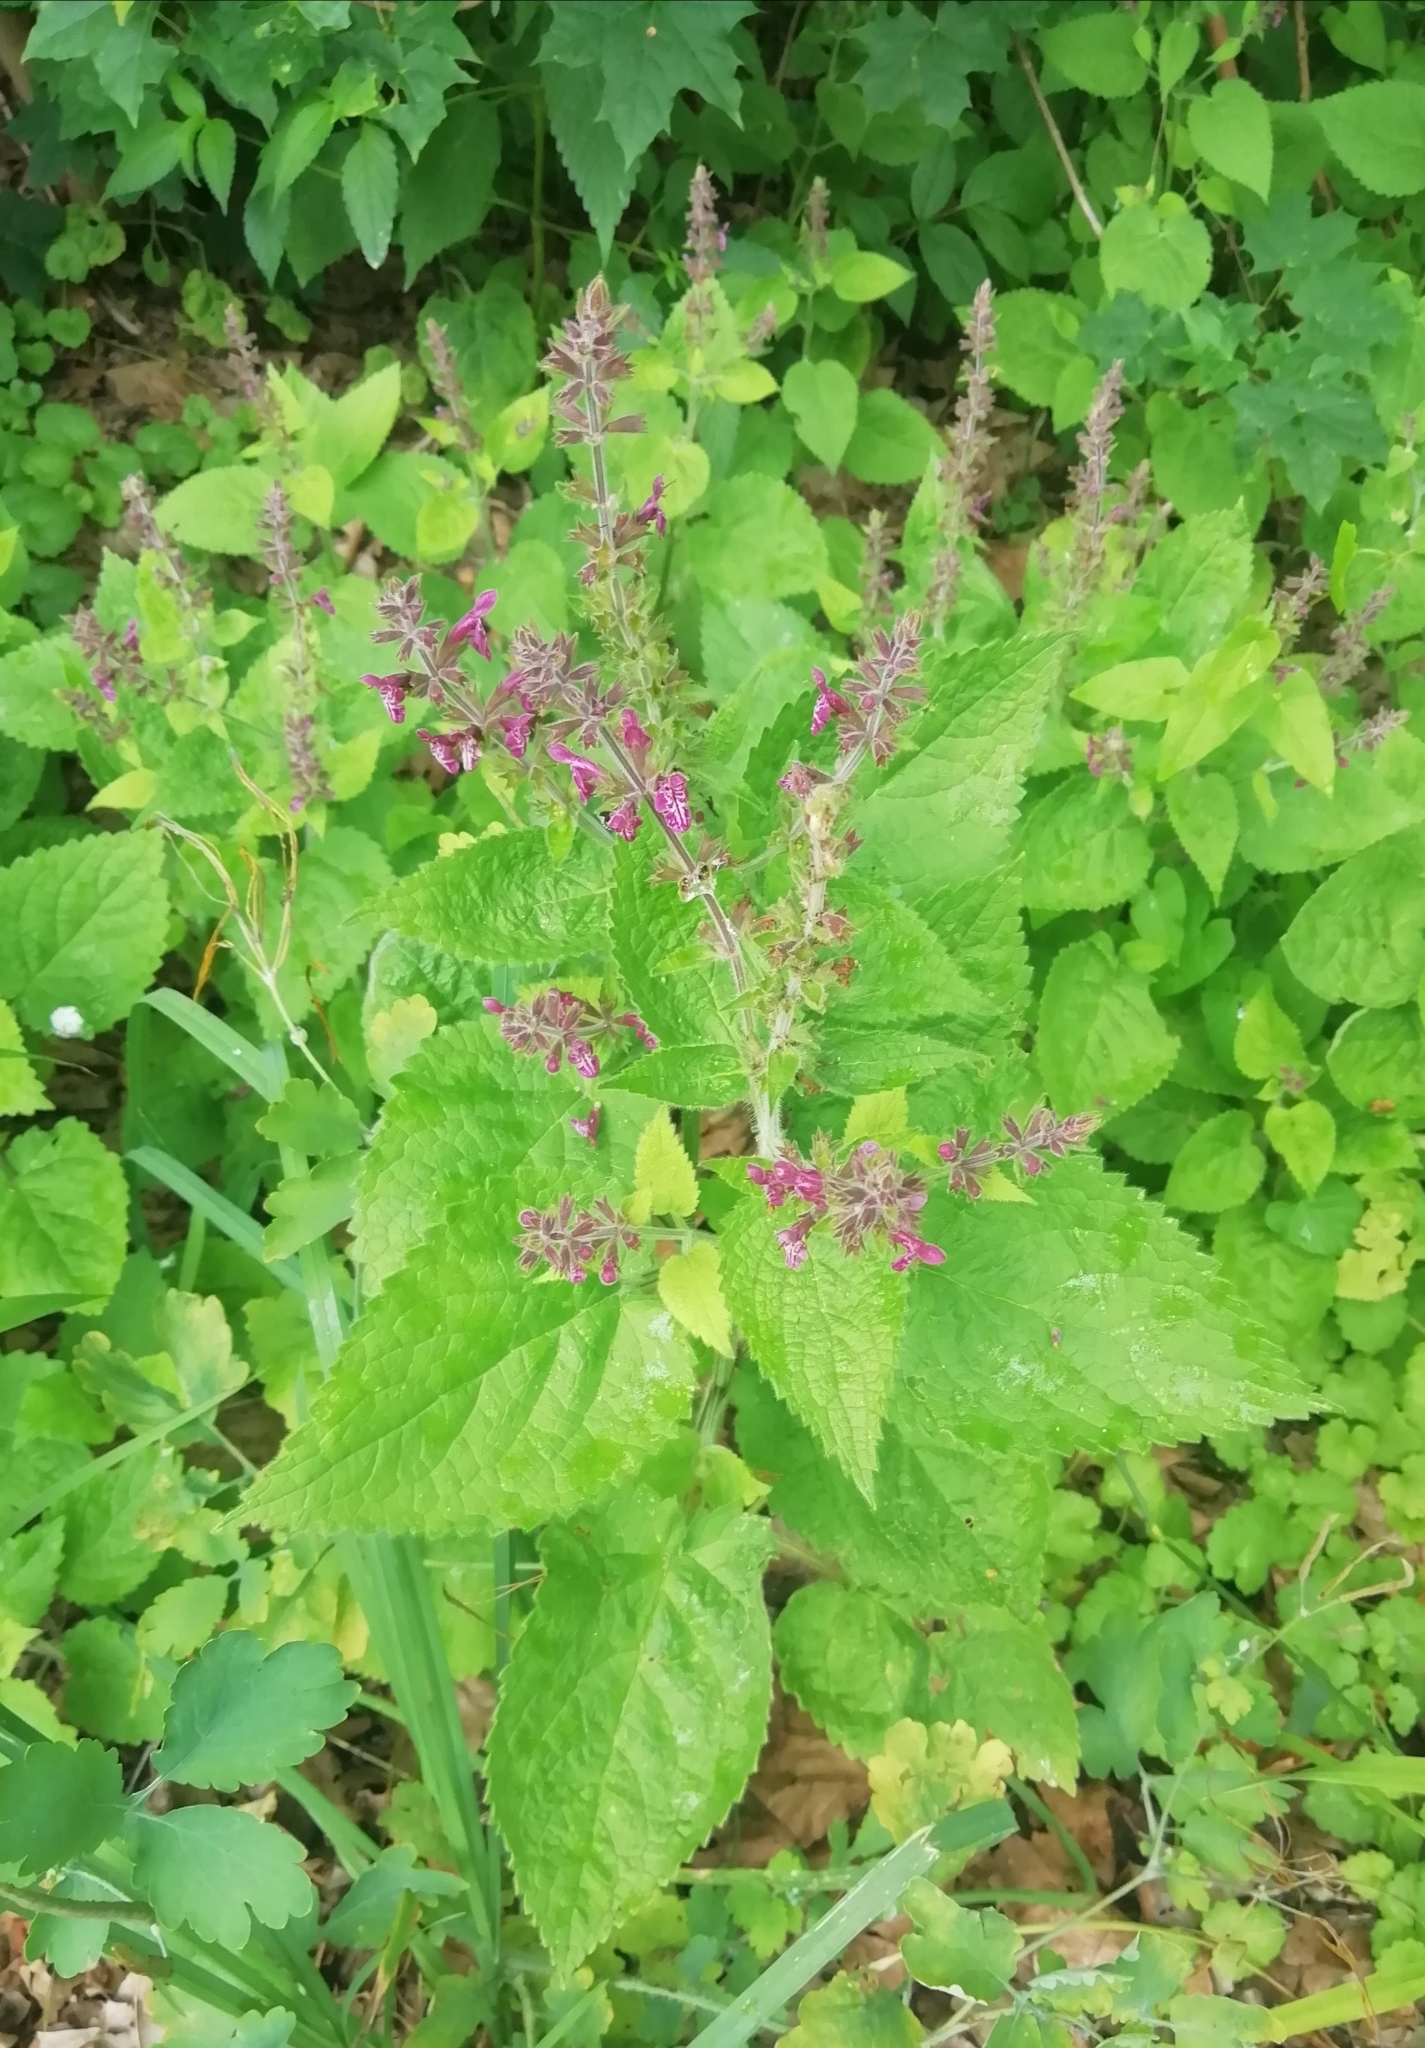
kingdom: Plantae
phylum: Tracheophyta
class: Magnoliopsida
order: Lamiales
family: Lamiaceae
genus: Stachys
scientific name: Stachys sylvatica
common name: Hedge woundwort
